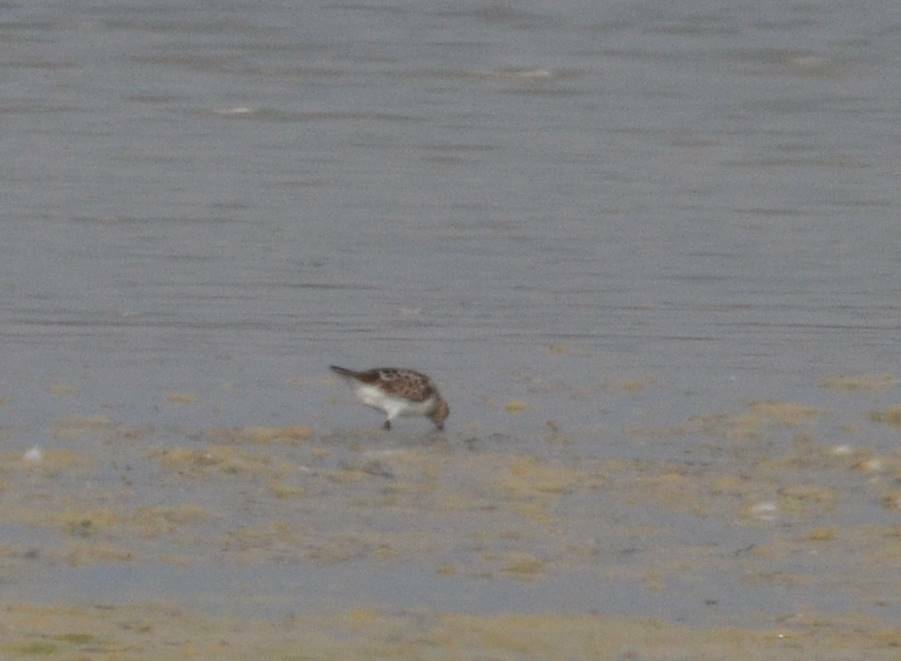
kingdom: Animalia
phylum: Chordata
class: Aves
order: Charadriiformes
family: Scolopacidae
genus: Calidris
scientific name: Calidris minuta
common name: Little stint
